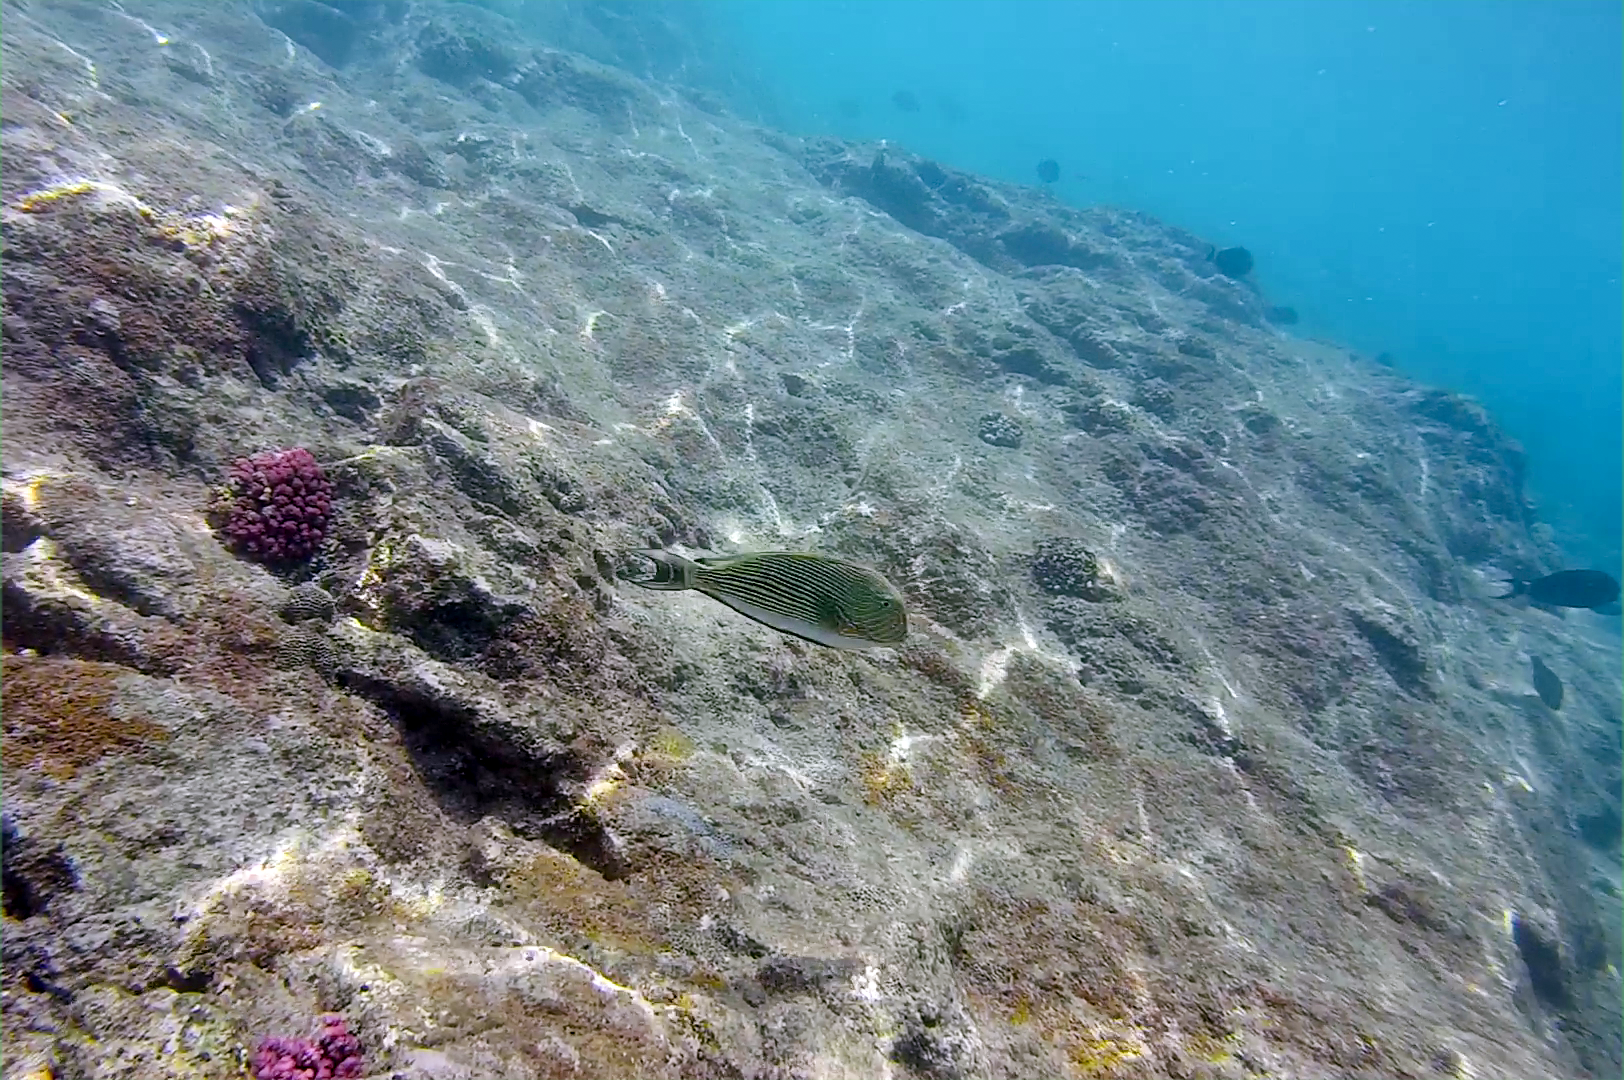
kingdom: Animalia
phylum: Chordata
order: Perciformes
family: Acanthuridae
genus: Acanthurus
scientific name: Acanthurus lineatus
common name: Striped surgeonfish
